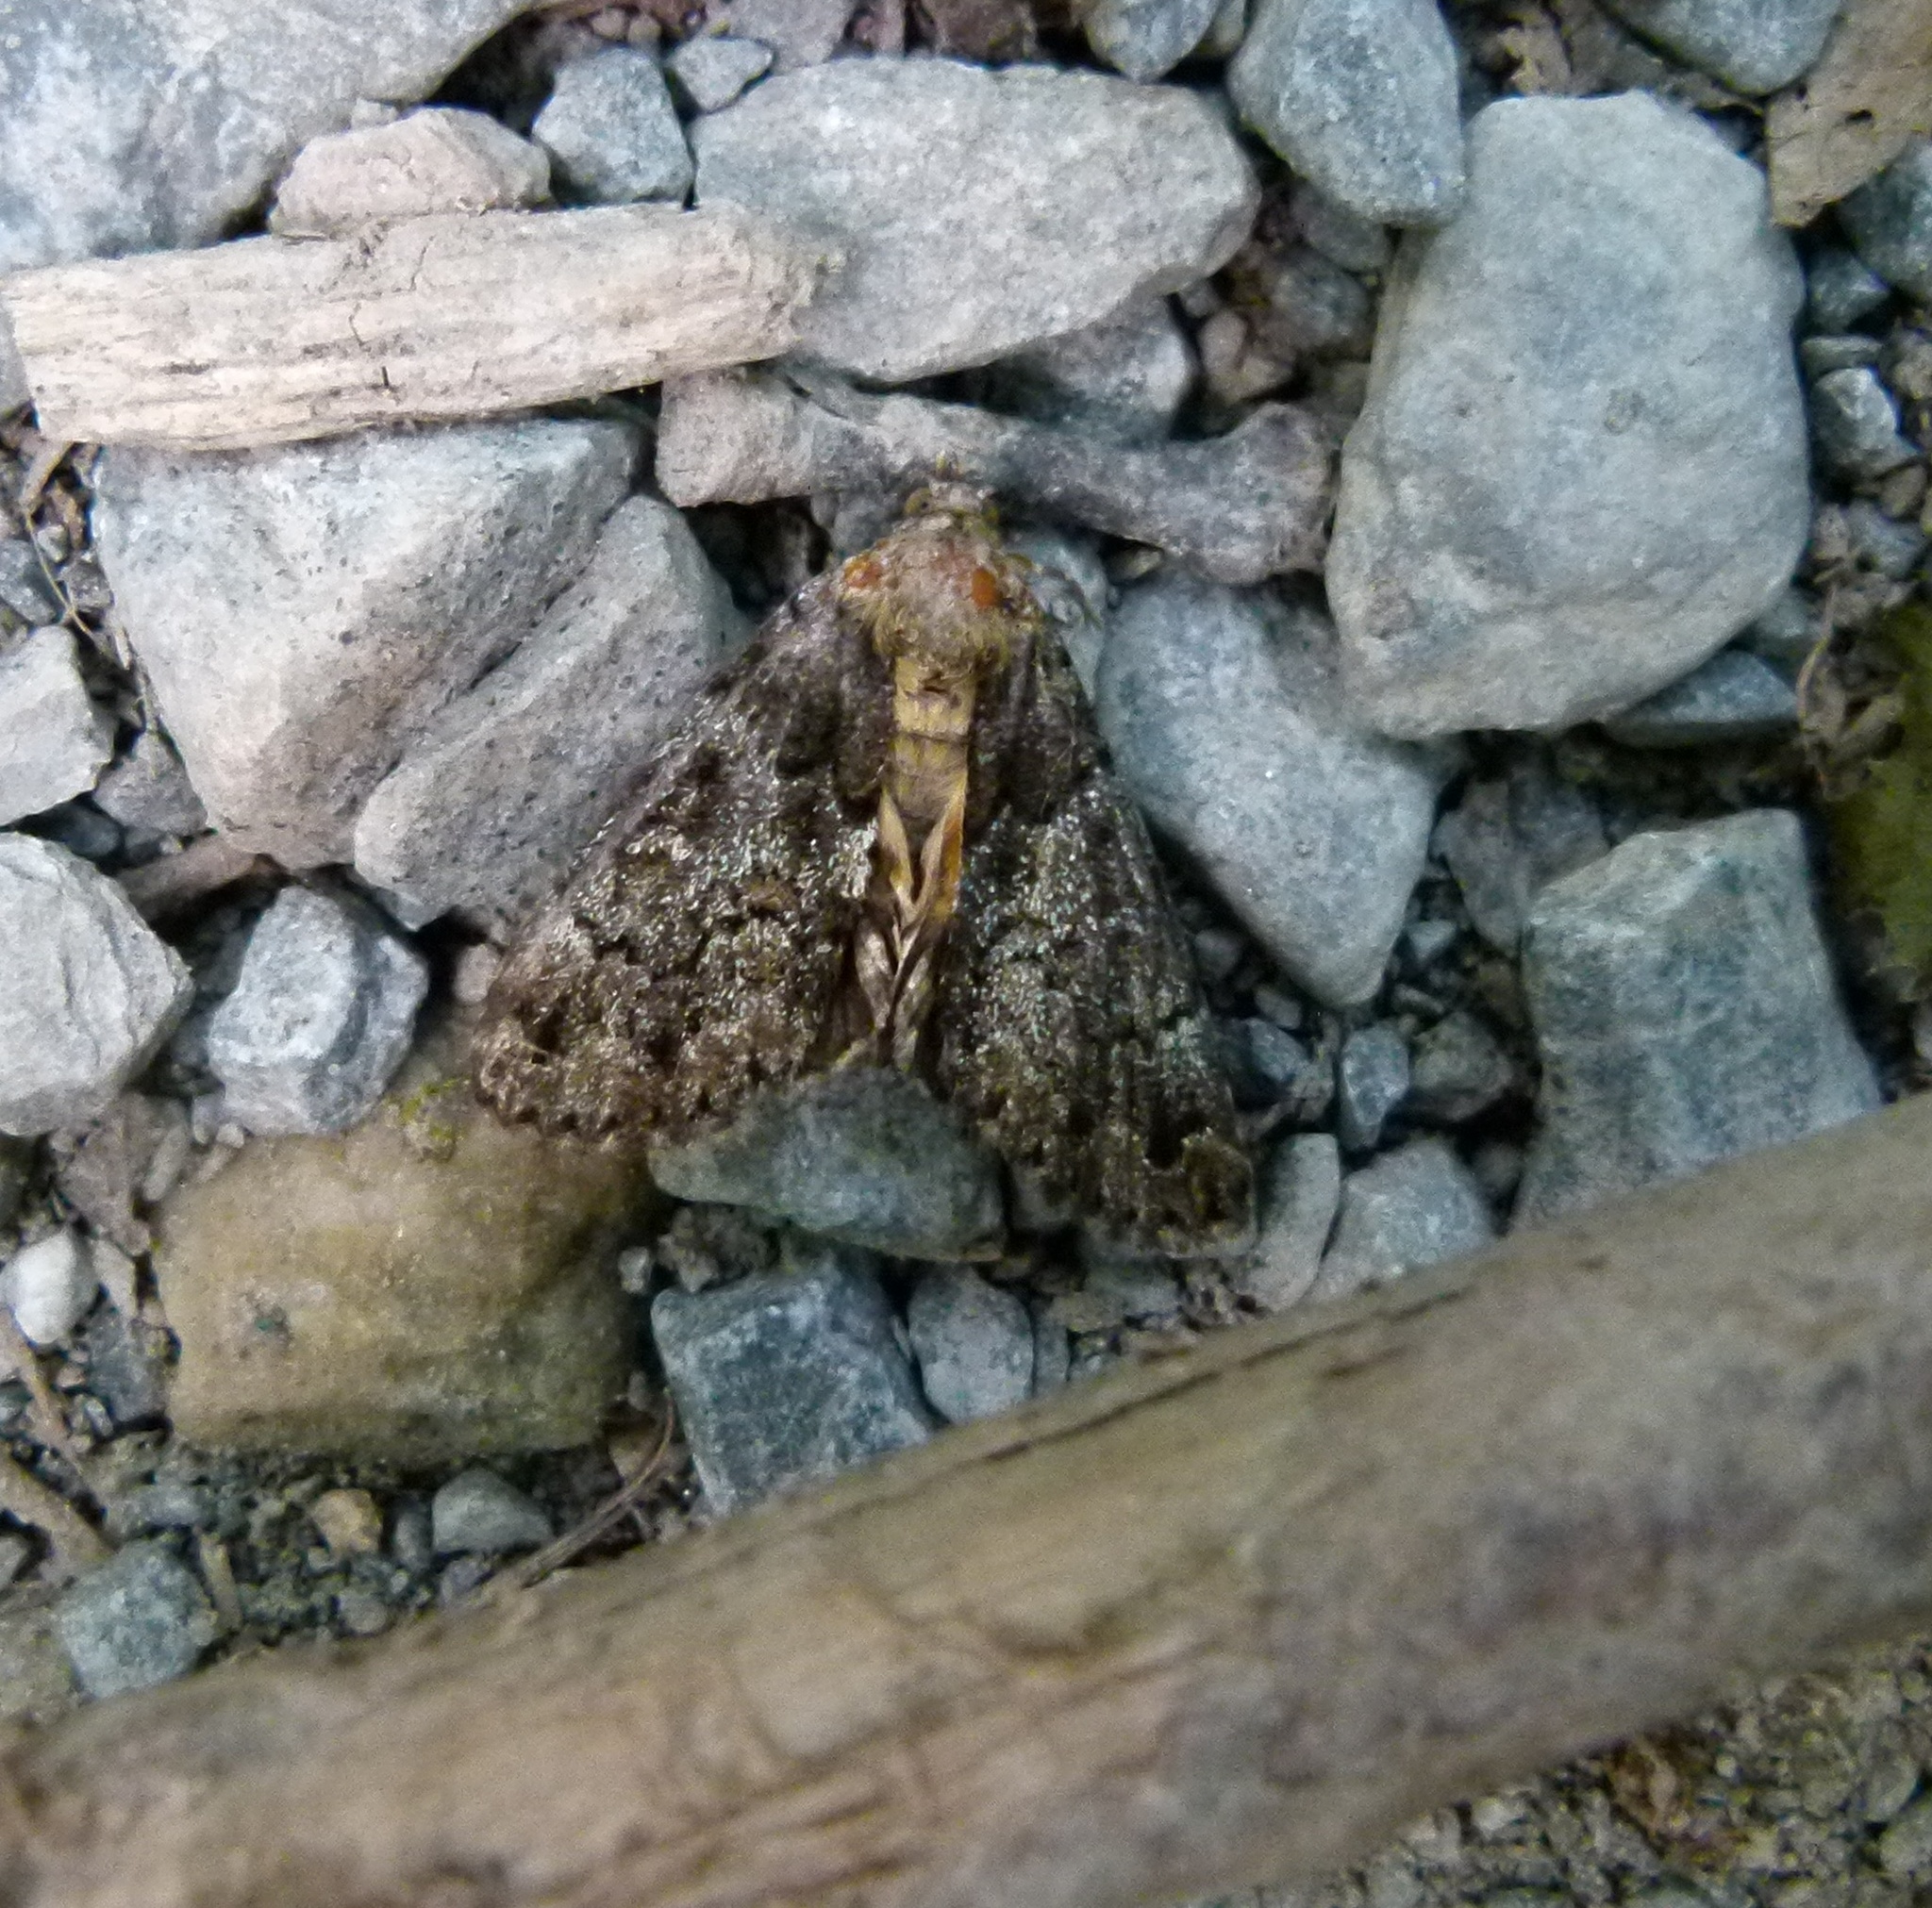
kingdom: Animalia
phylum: Arthropoda
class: Insecta
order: Lepidoptera
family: Erebidae
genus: Allotria
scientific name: Allotria elonympha
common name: False underwing
